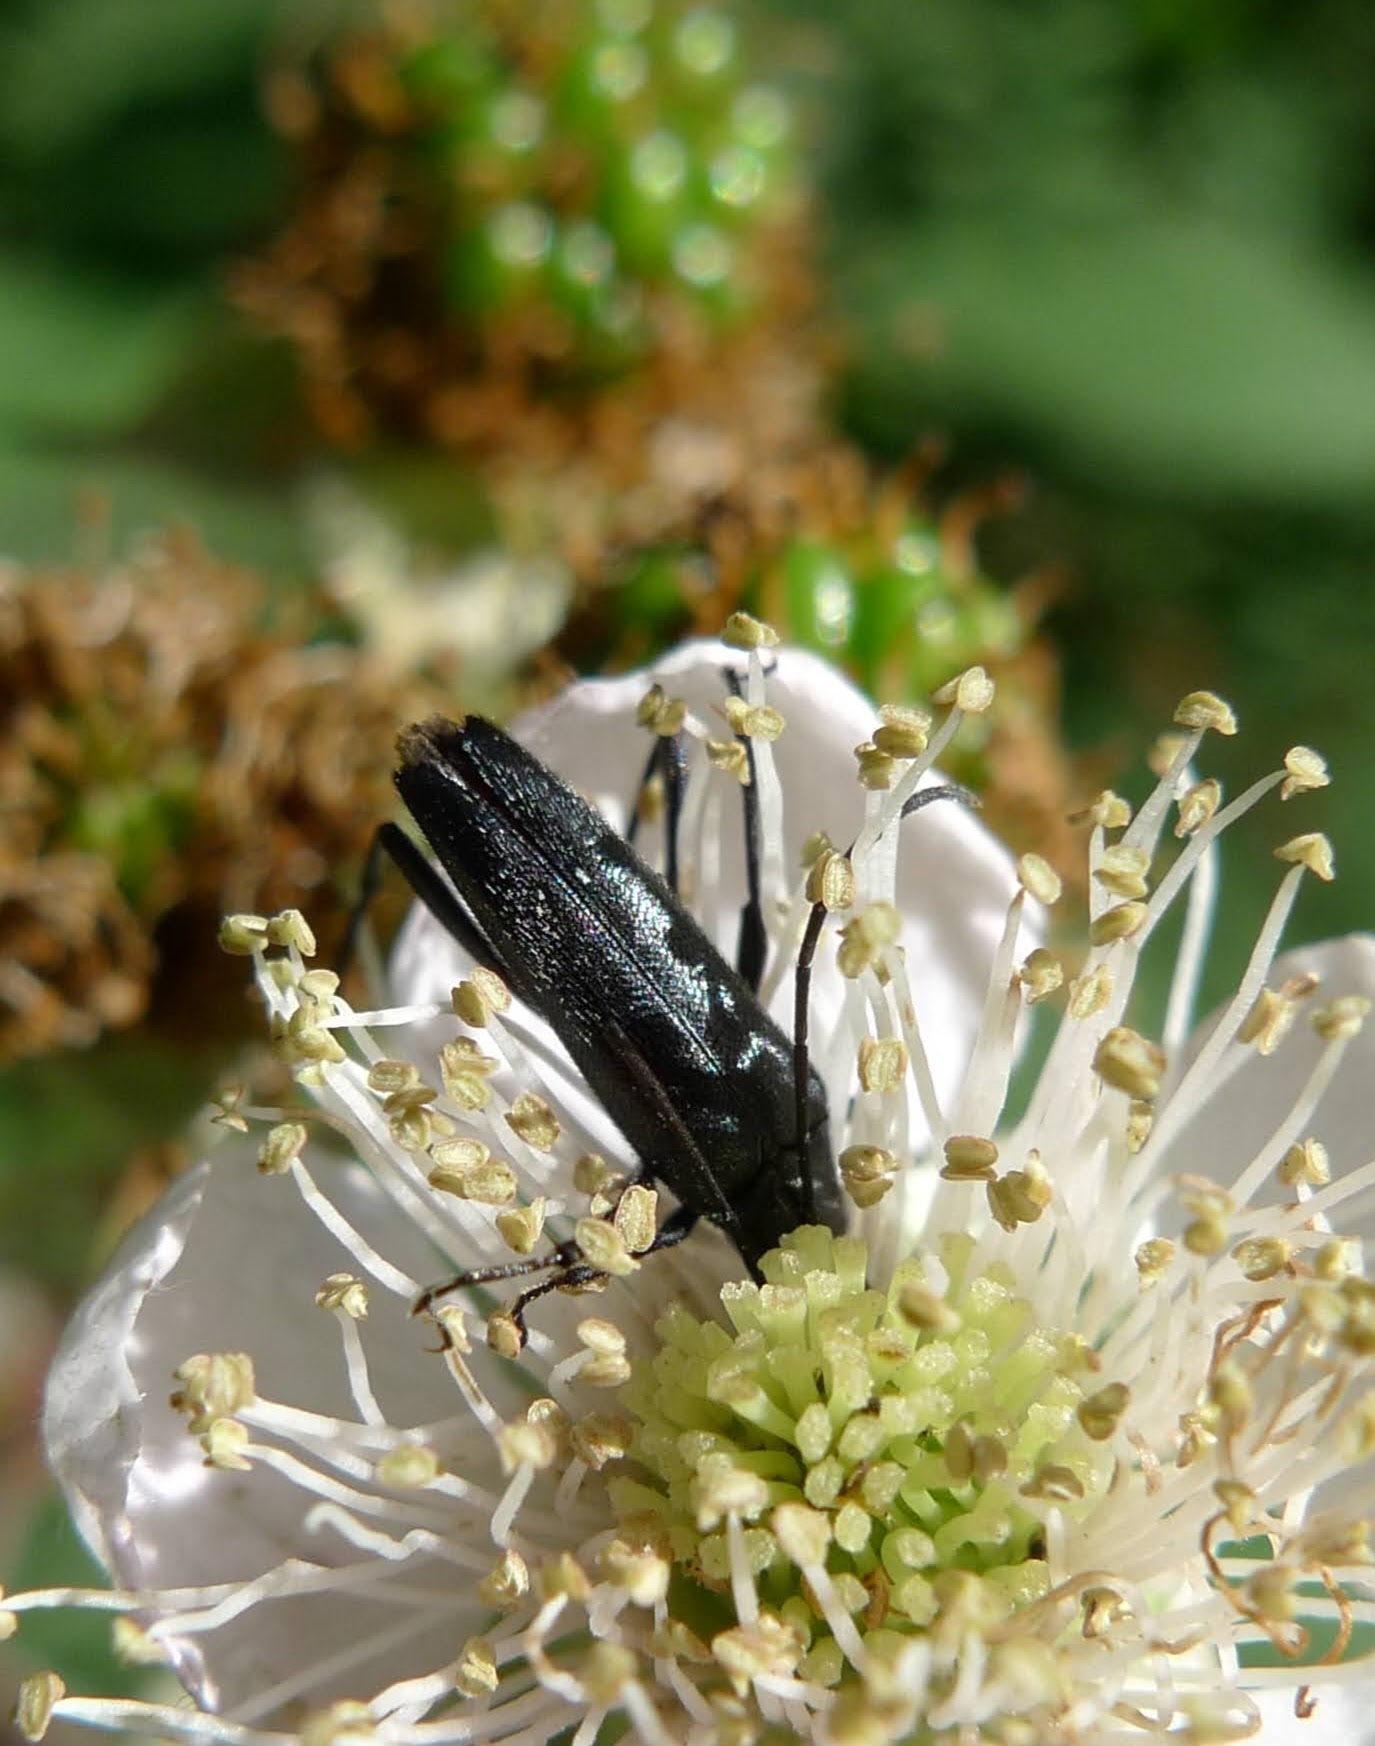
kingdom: Animalia
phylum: Arthropoda
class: Insecta
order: Coleoptera
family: Cerambycidae
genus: Stenurella
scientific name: Stenurella nigra
